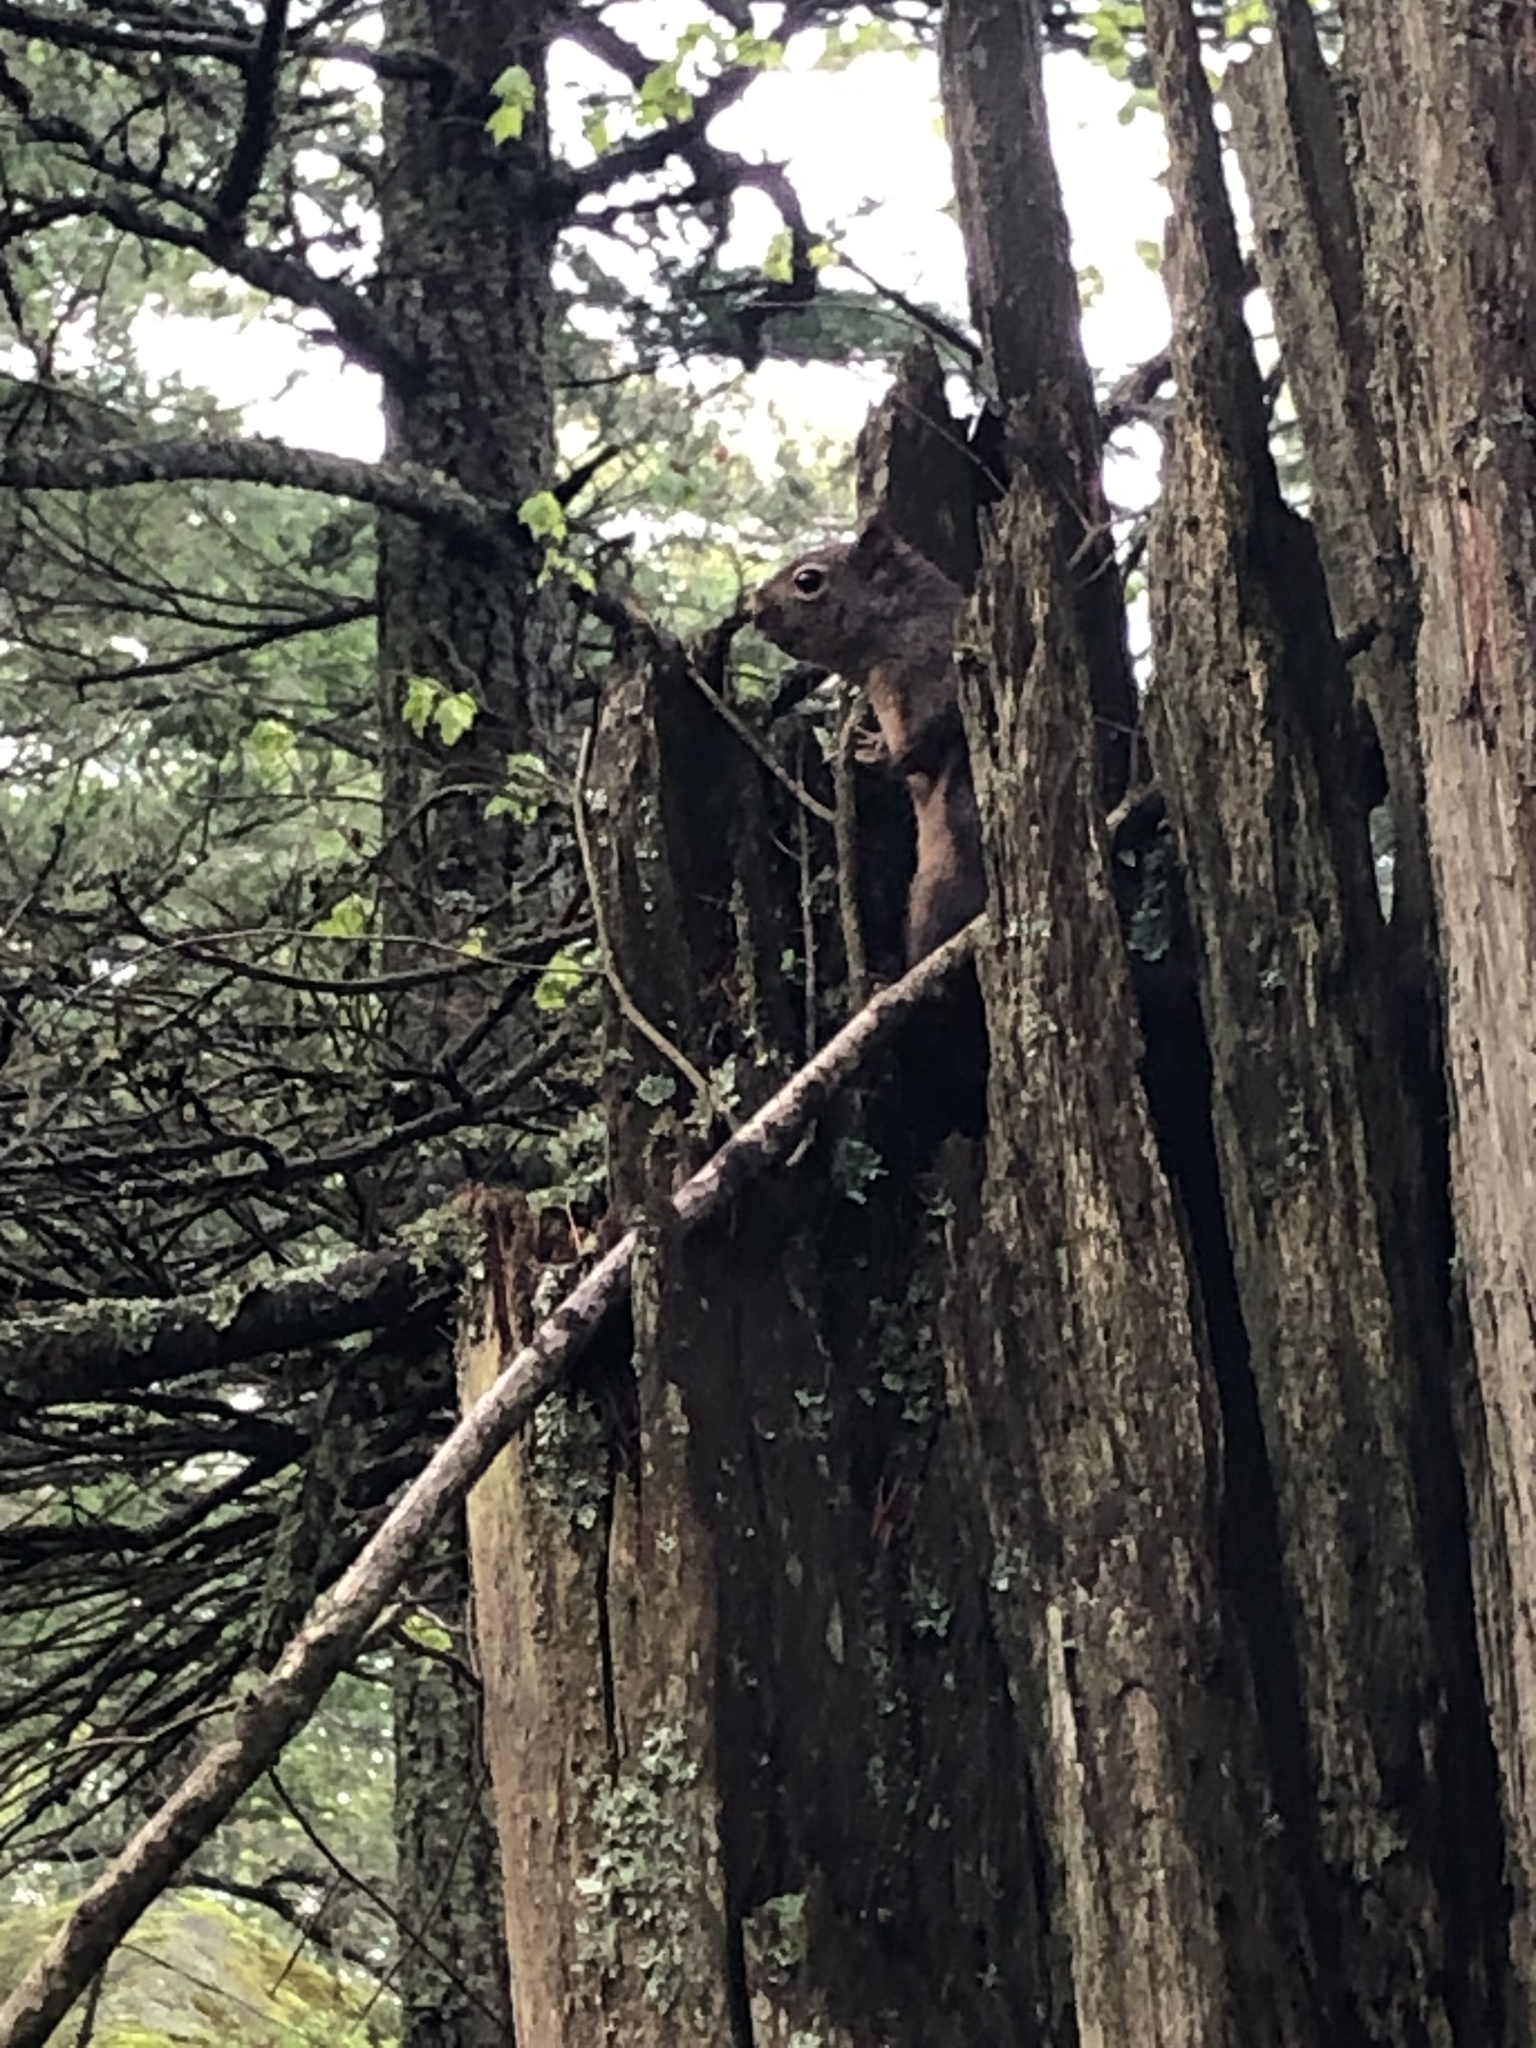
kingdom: Animalia
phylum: Chordata
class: Mammalia
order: Rodentia
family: Sciuridae
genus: Tamiasciurus
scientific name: Tamiasciurus douglasii
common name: Douglas's squirrel
